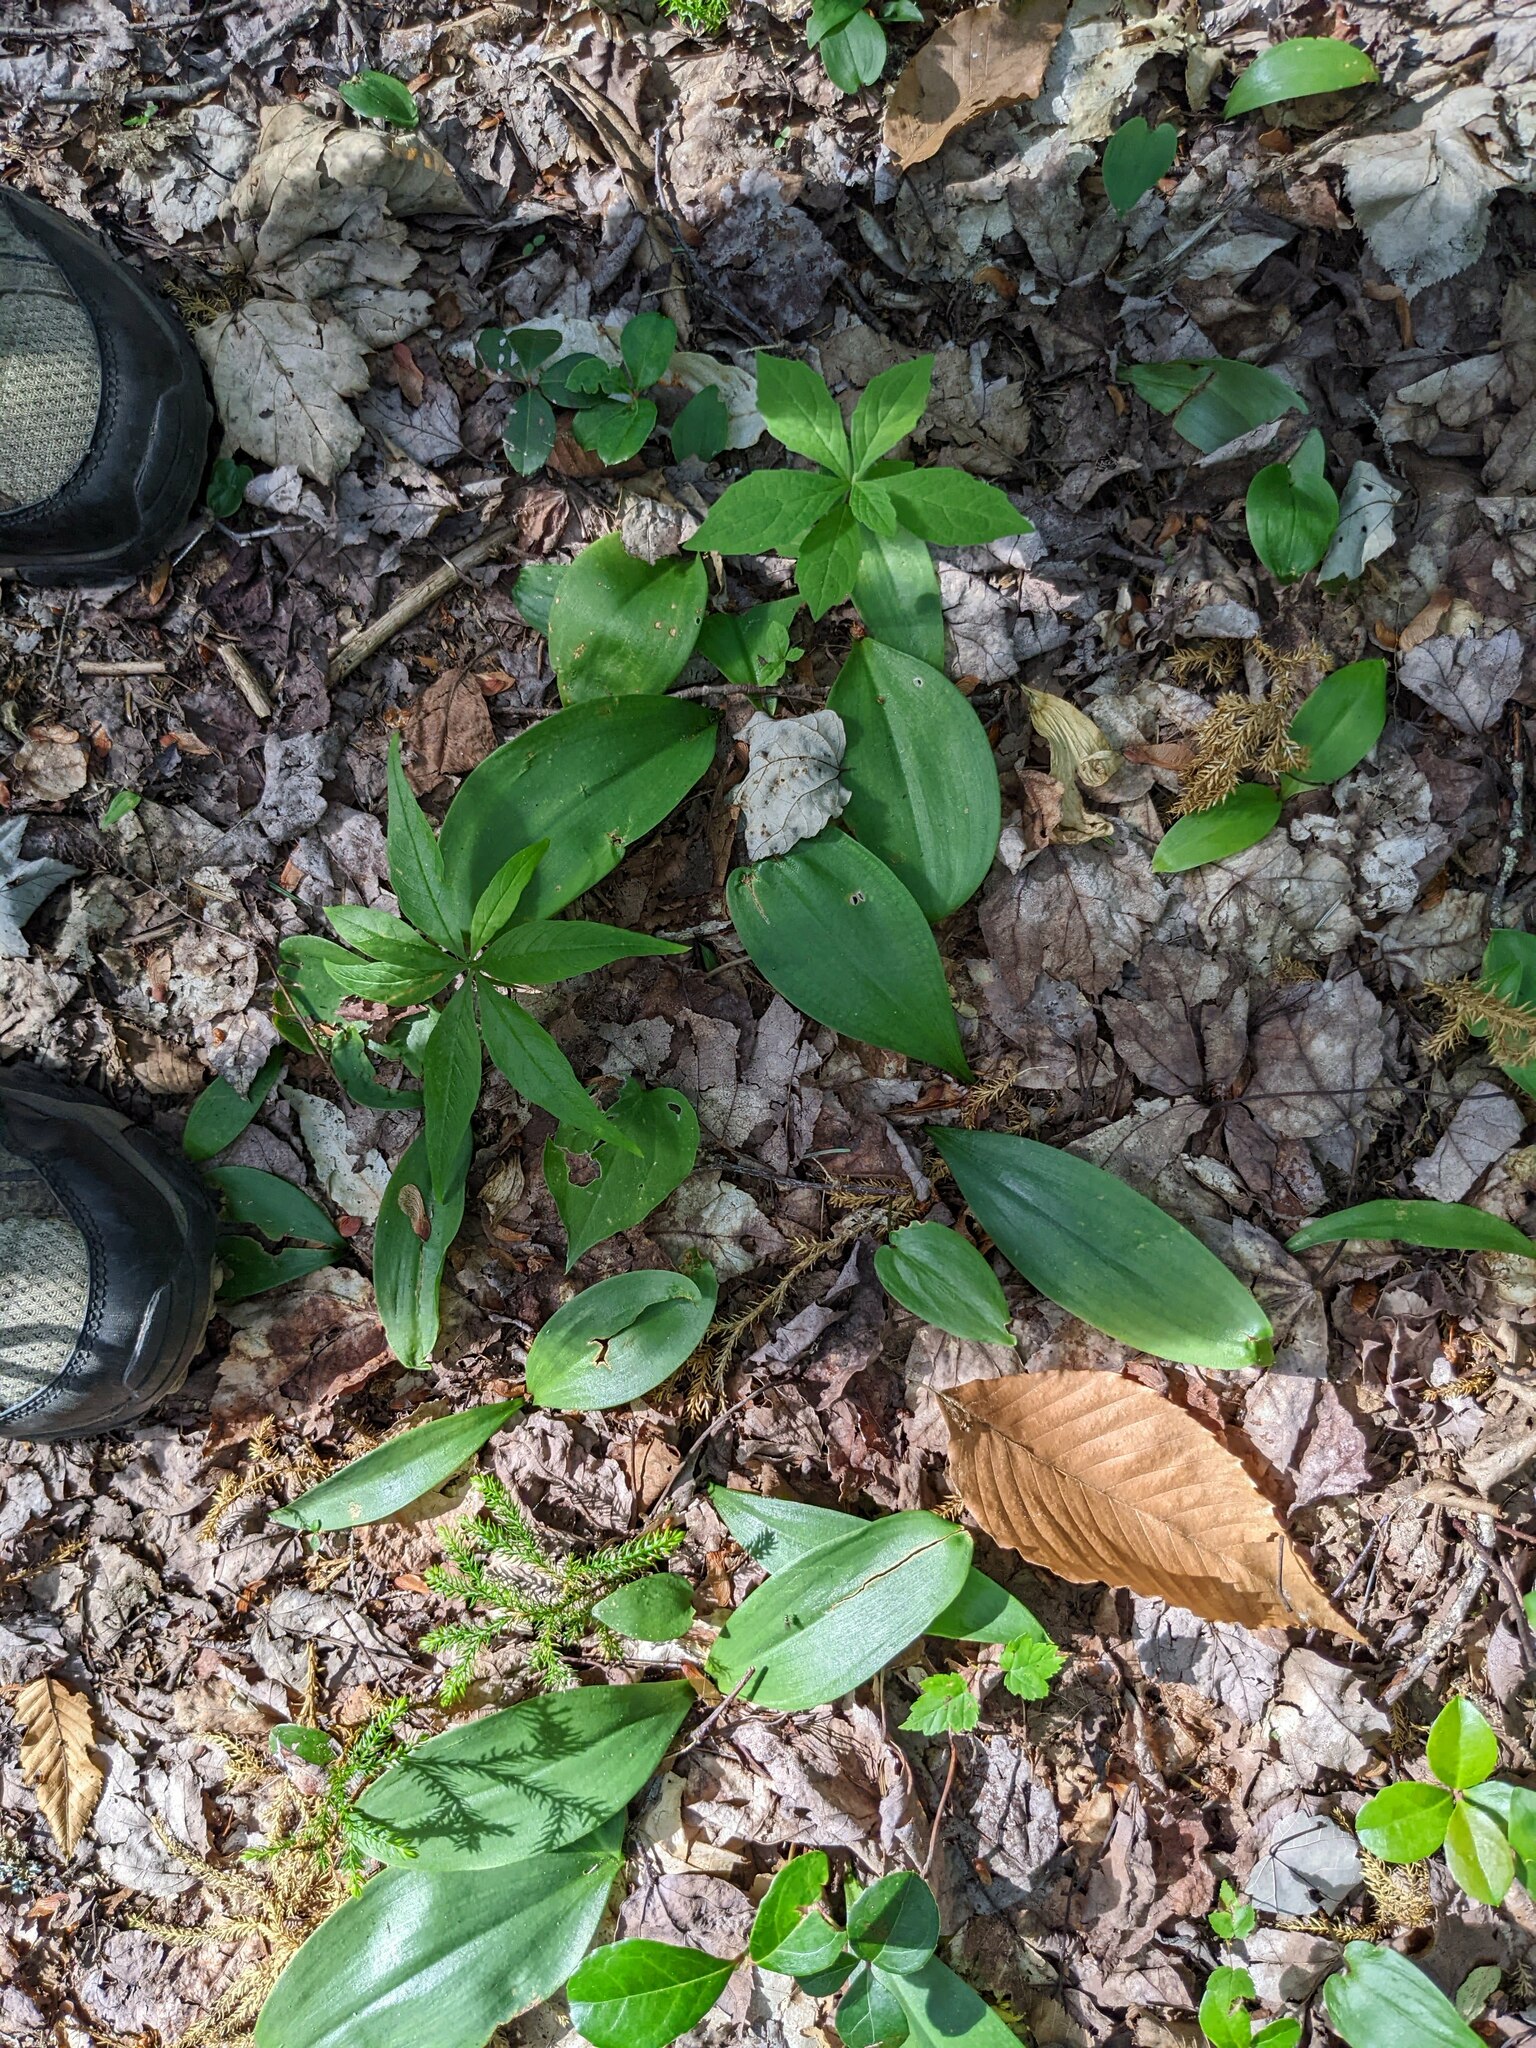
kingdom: Plantae
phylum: Tracheophyta
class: Magnoliopsida
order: Ericales
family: Primulaceae
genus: Lysimachia
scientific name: Lysimachia borealis
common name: American starflower
